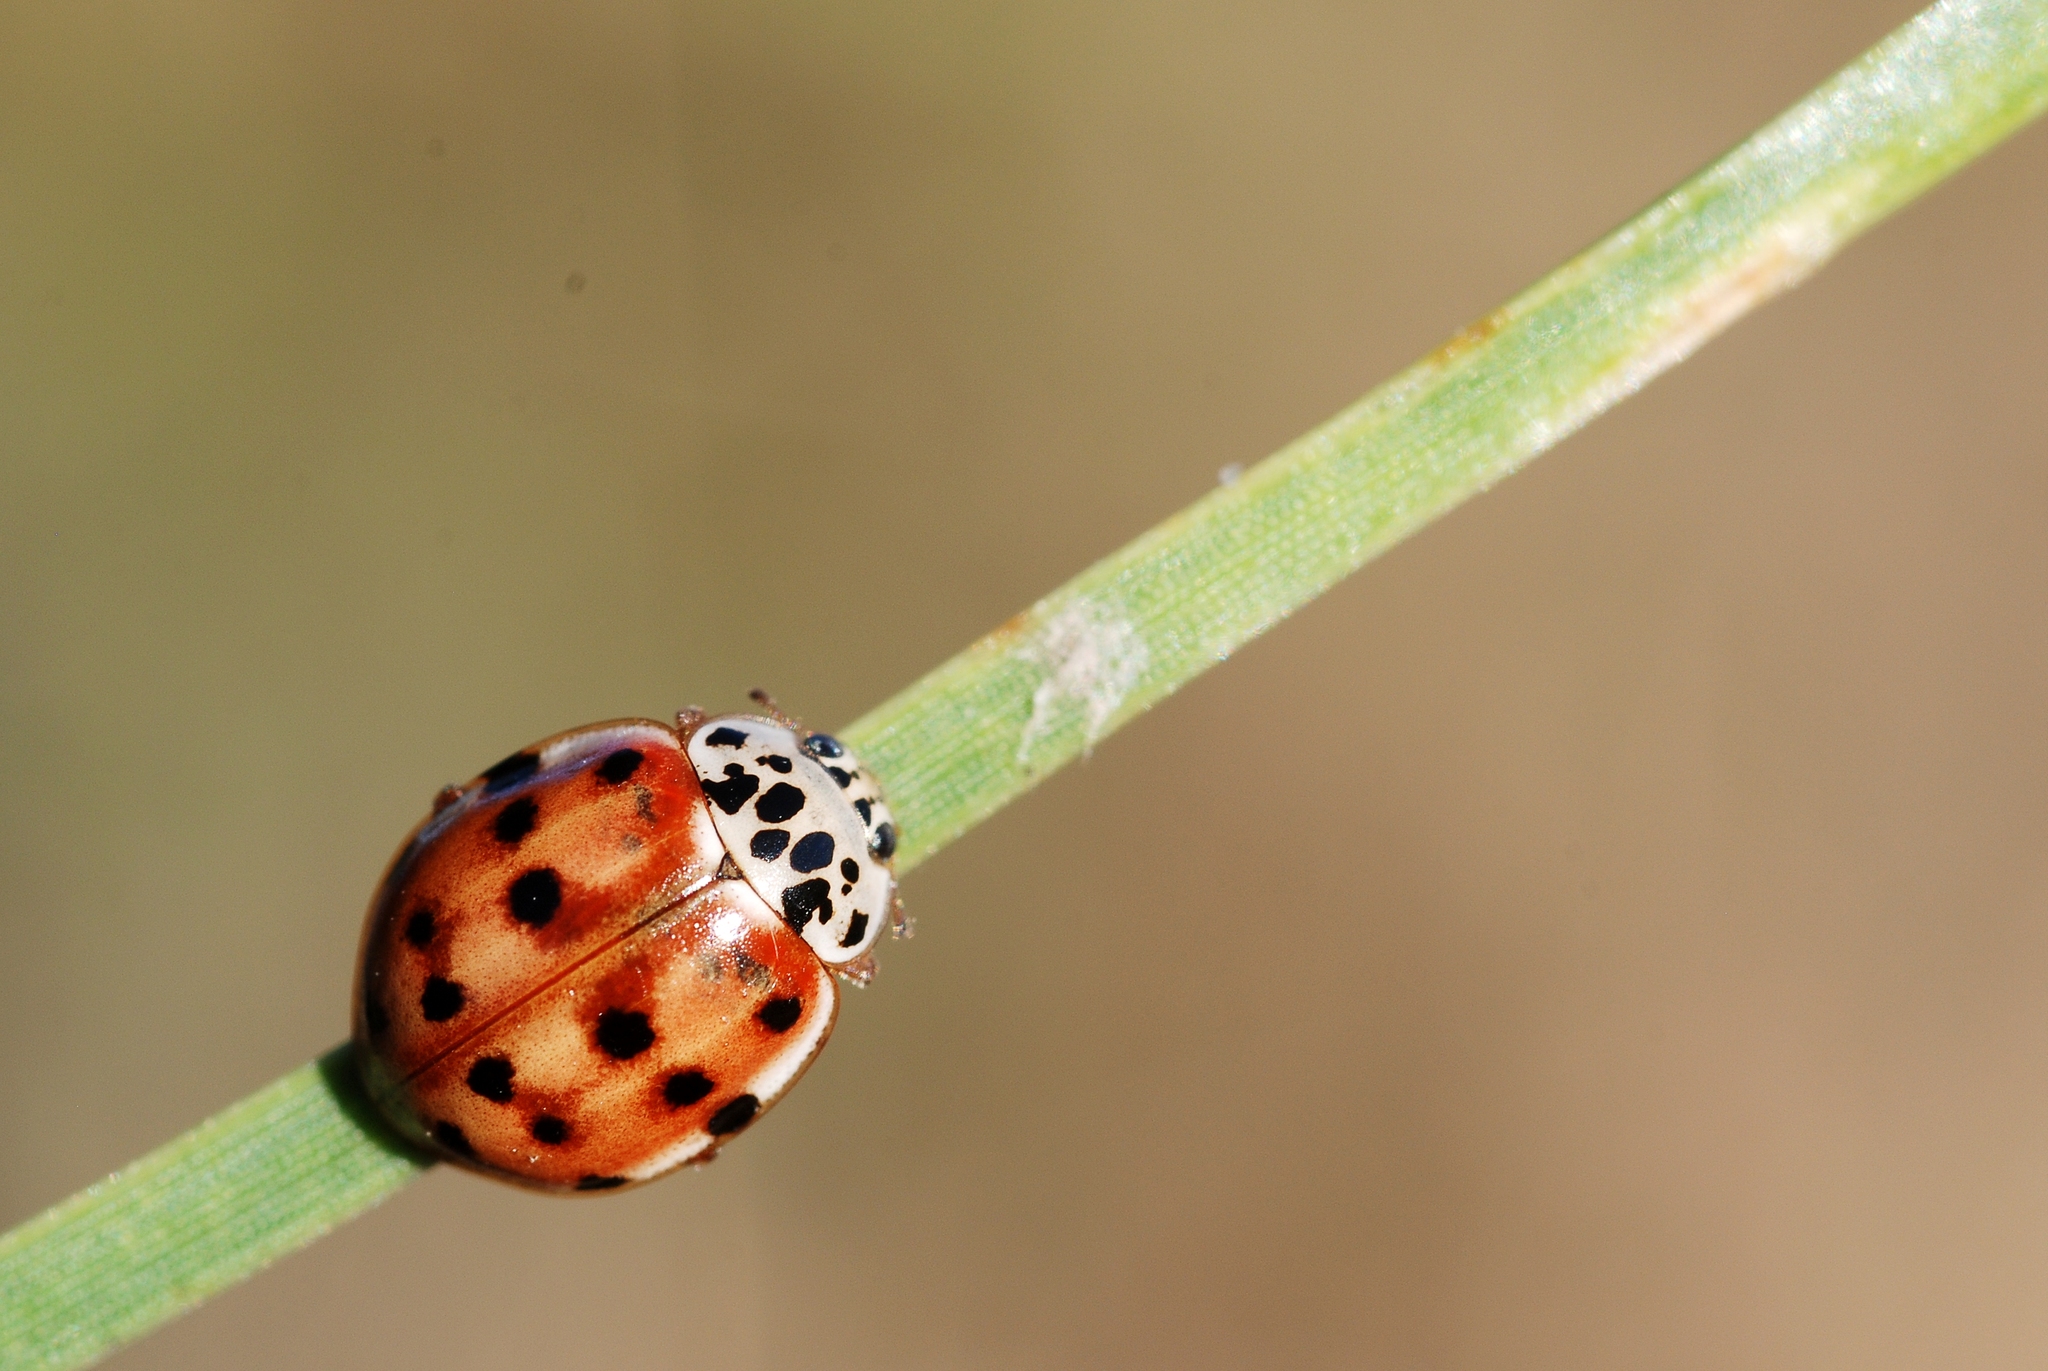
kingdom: Animalia
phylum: Arthropoda
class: Insecta
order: Coleoptera
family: Coccinellidae
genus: Harmonia
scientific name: Harmonia quadripunctata
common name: Cream-streaked ladybird
